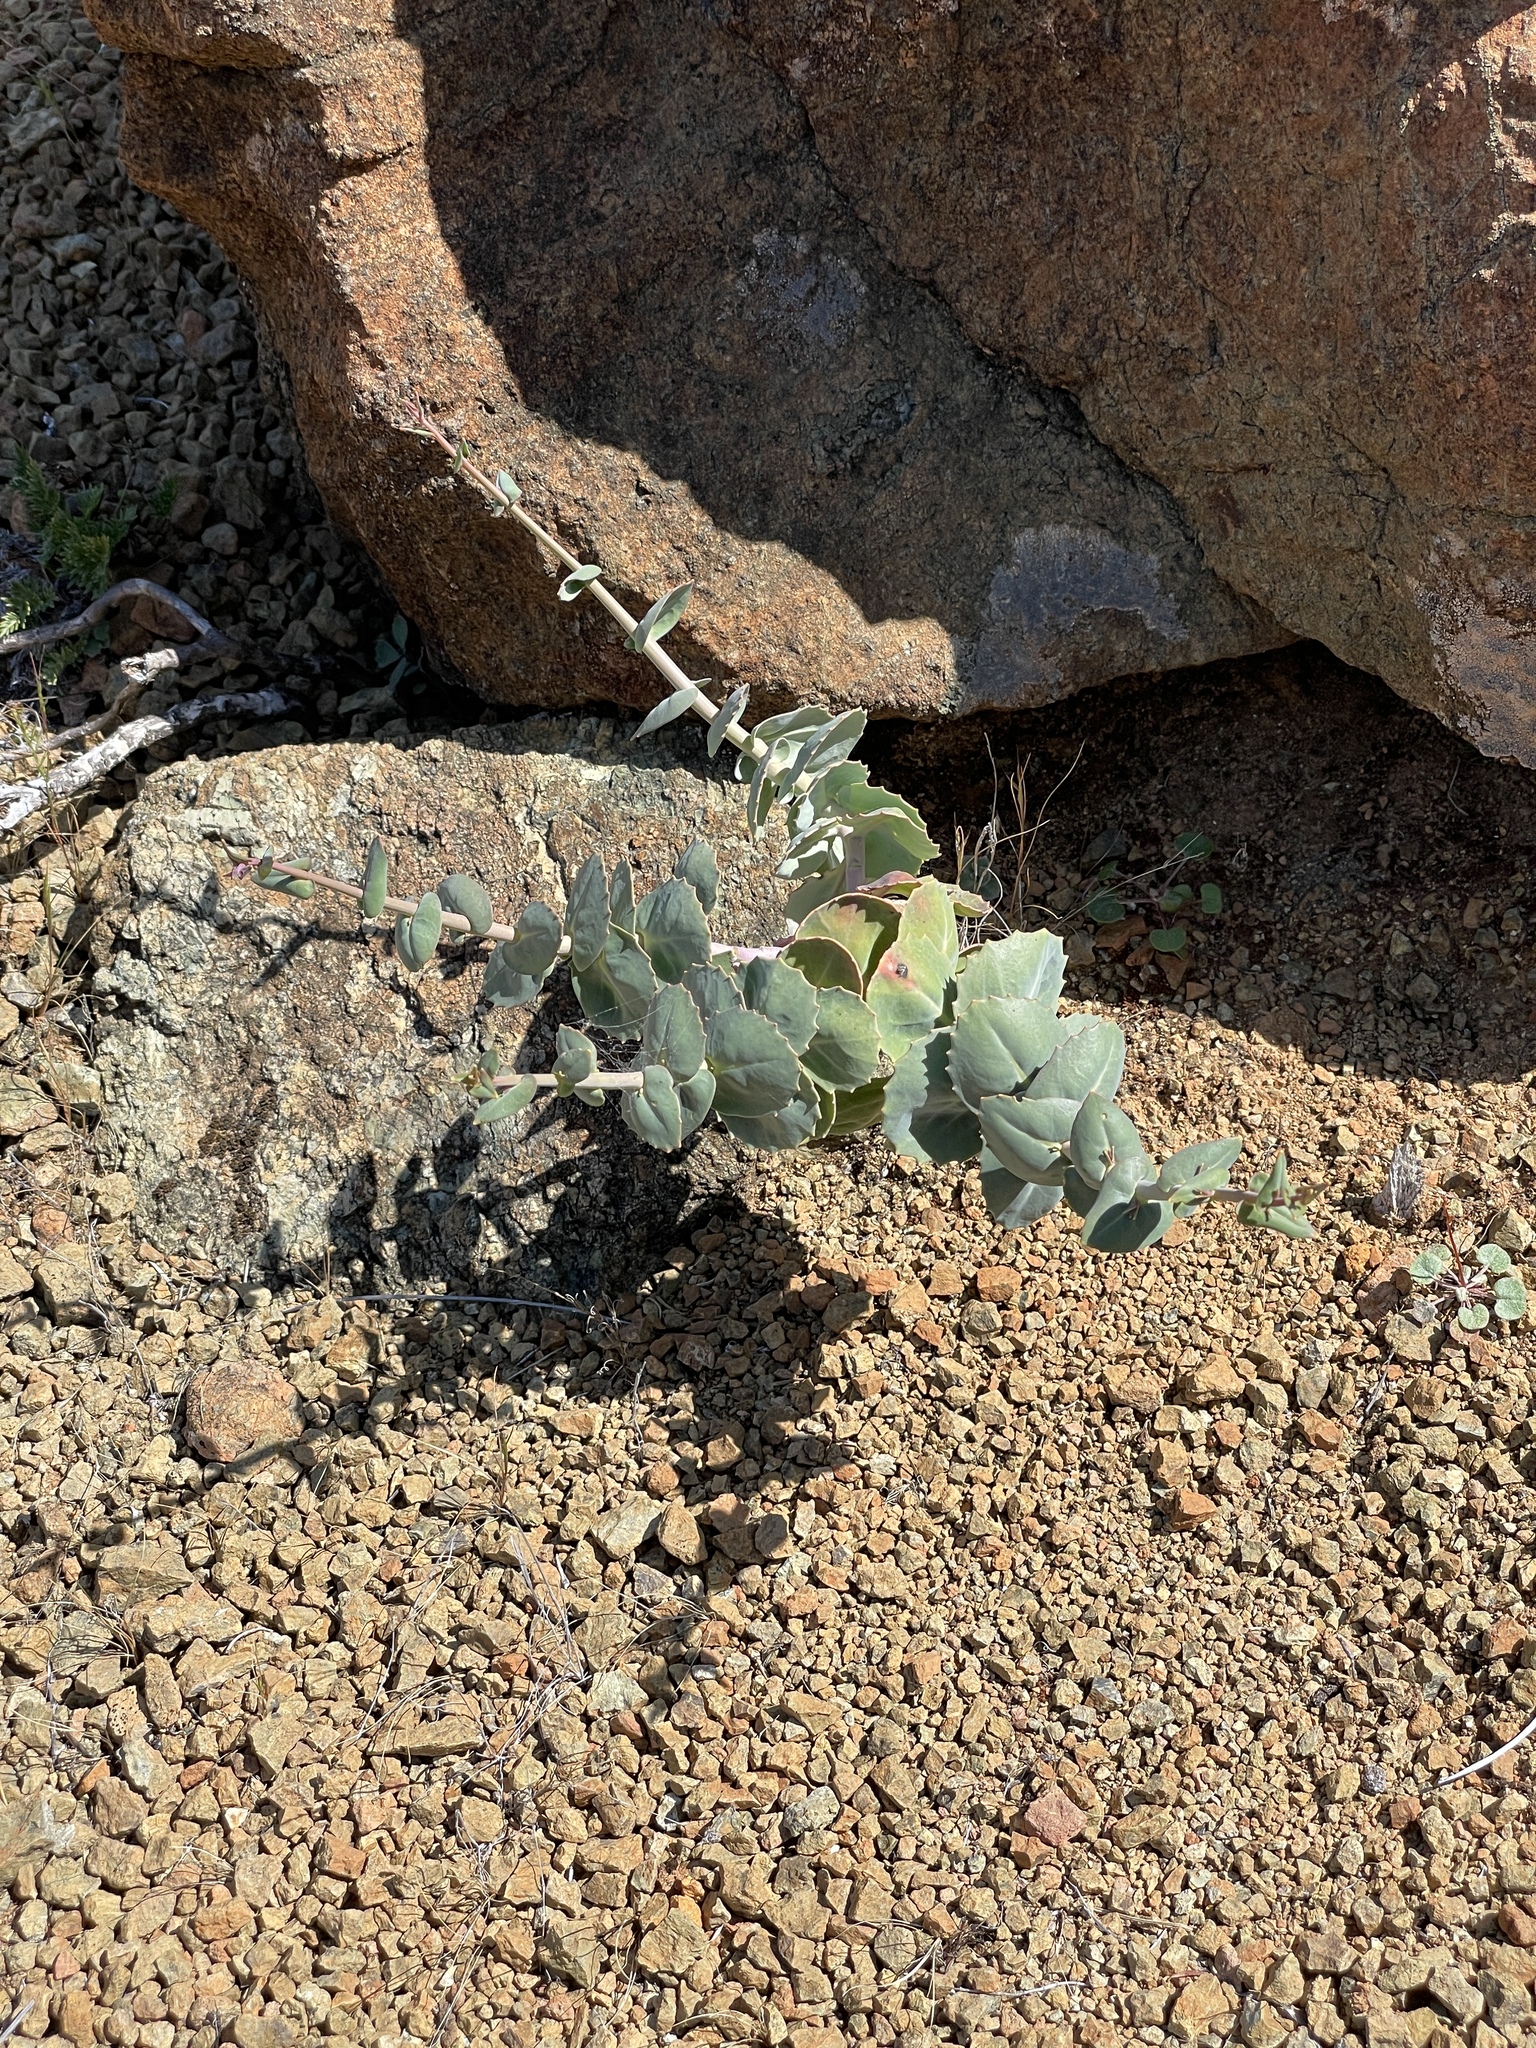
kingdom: Plantae
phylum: Tracheophyta
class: Magnoliopsida
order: Brassicales
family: Brassicaceae
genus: Streptanthus
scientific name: Streptanthus morrisonii
